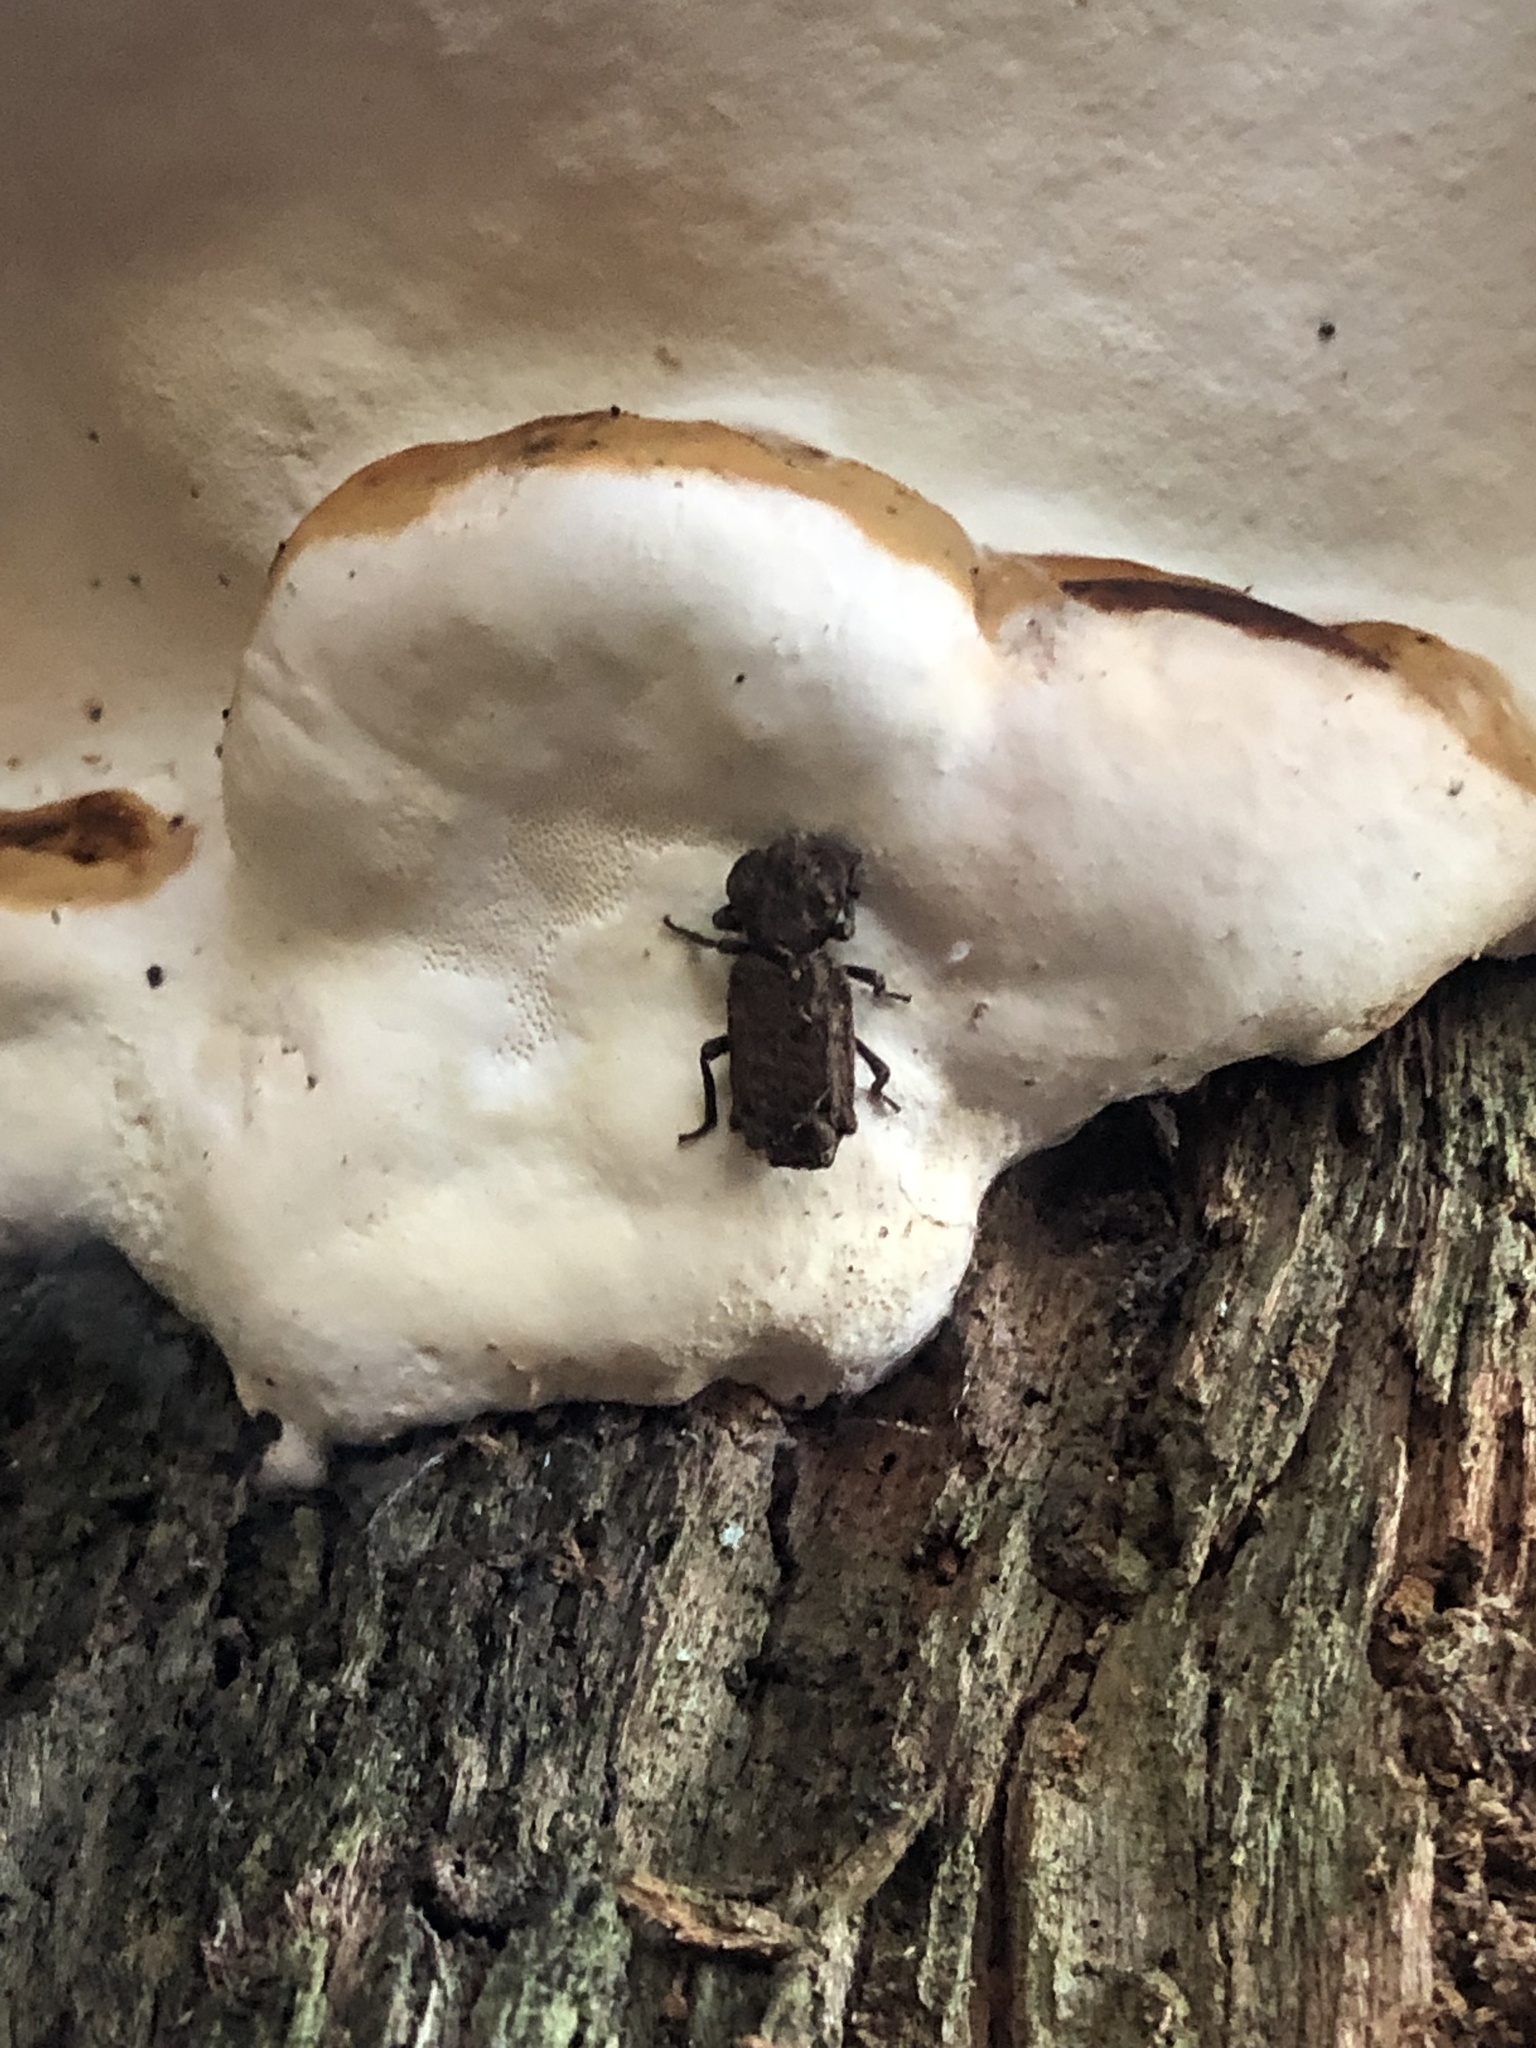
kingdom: Animalia
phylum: Arthropoda
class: Insecta
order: Coleoptera
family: Zopheridae
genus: Phellopsis
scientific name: Phellopsis obcordata
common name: Eastern ironclad beetle
